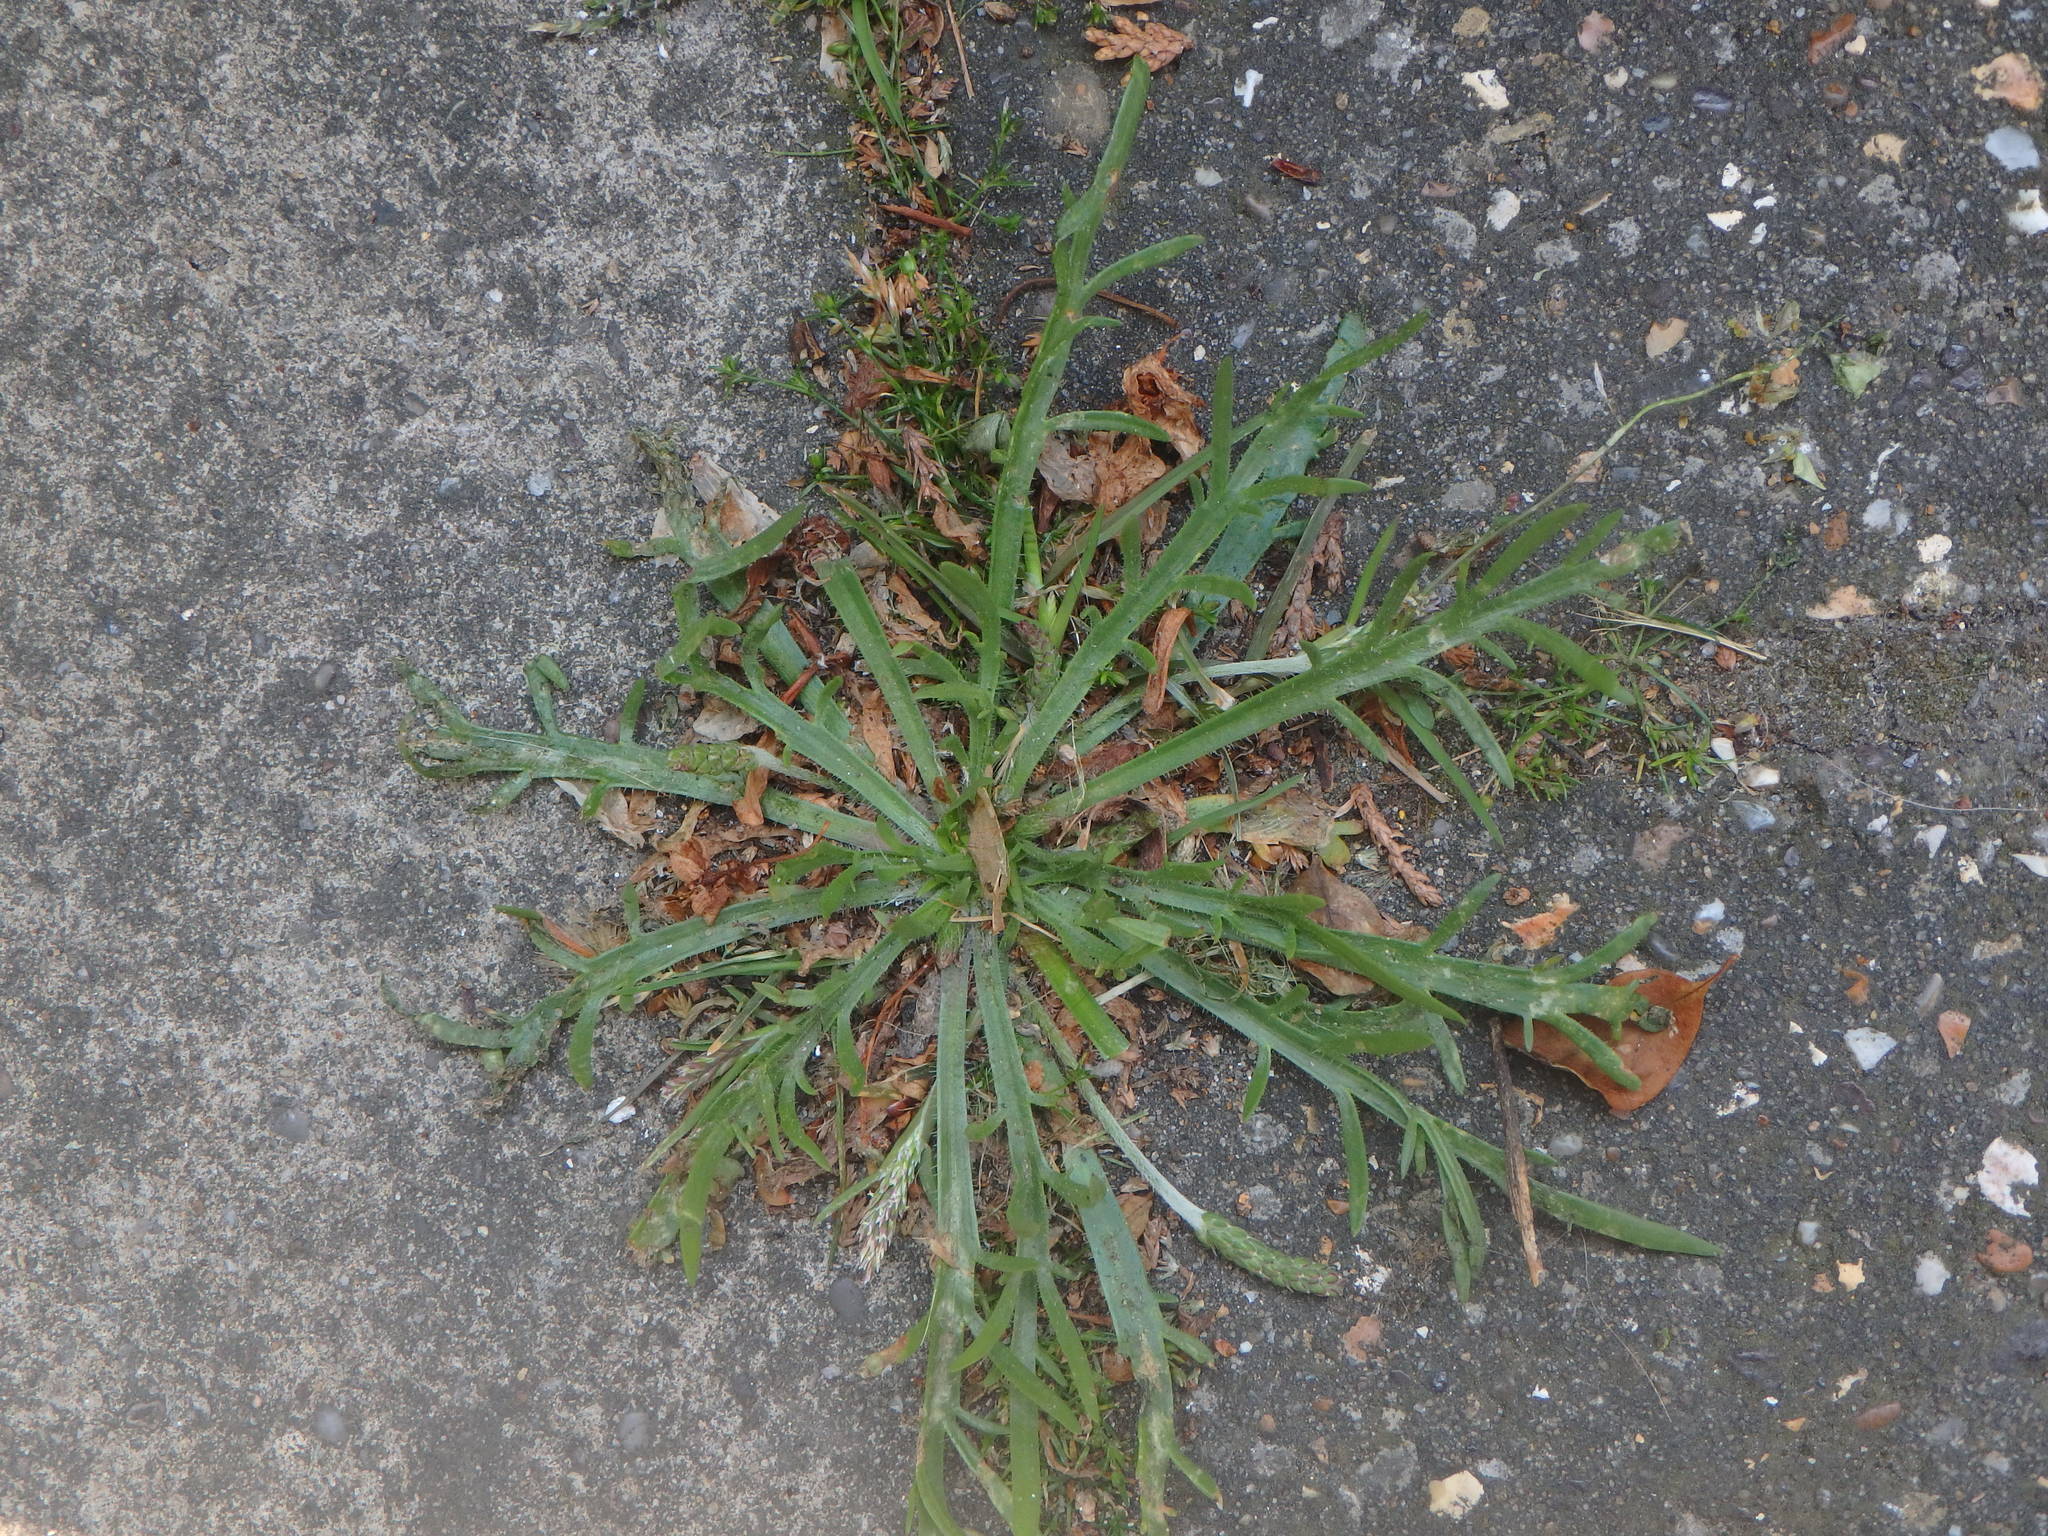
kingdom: Plantae
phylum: Tracheophyta
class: Magnoliopsida
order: Lamiales
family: Plantaginaceae
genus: Plantago
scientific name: Plantago coronopus
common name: Buck's-horn plantain
